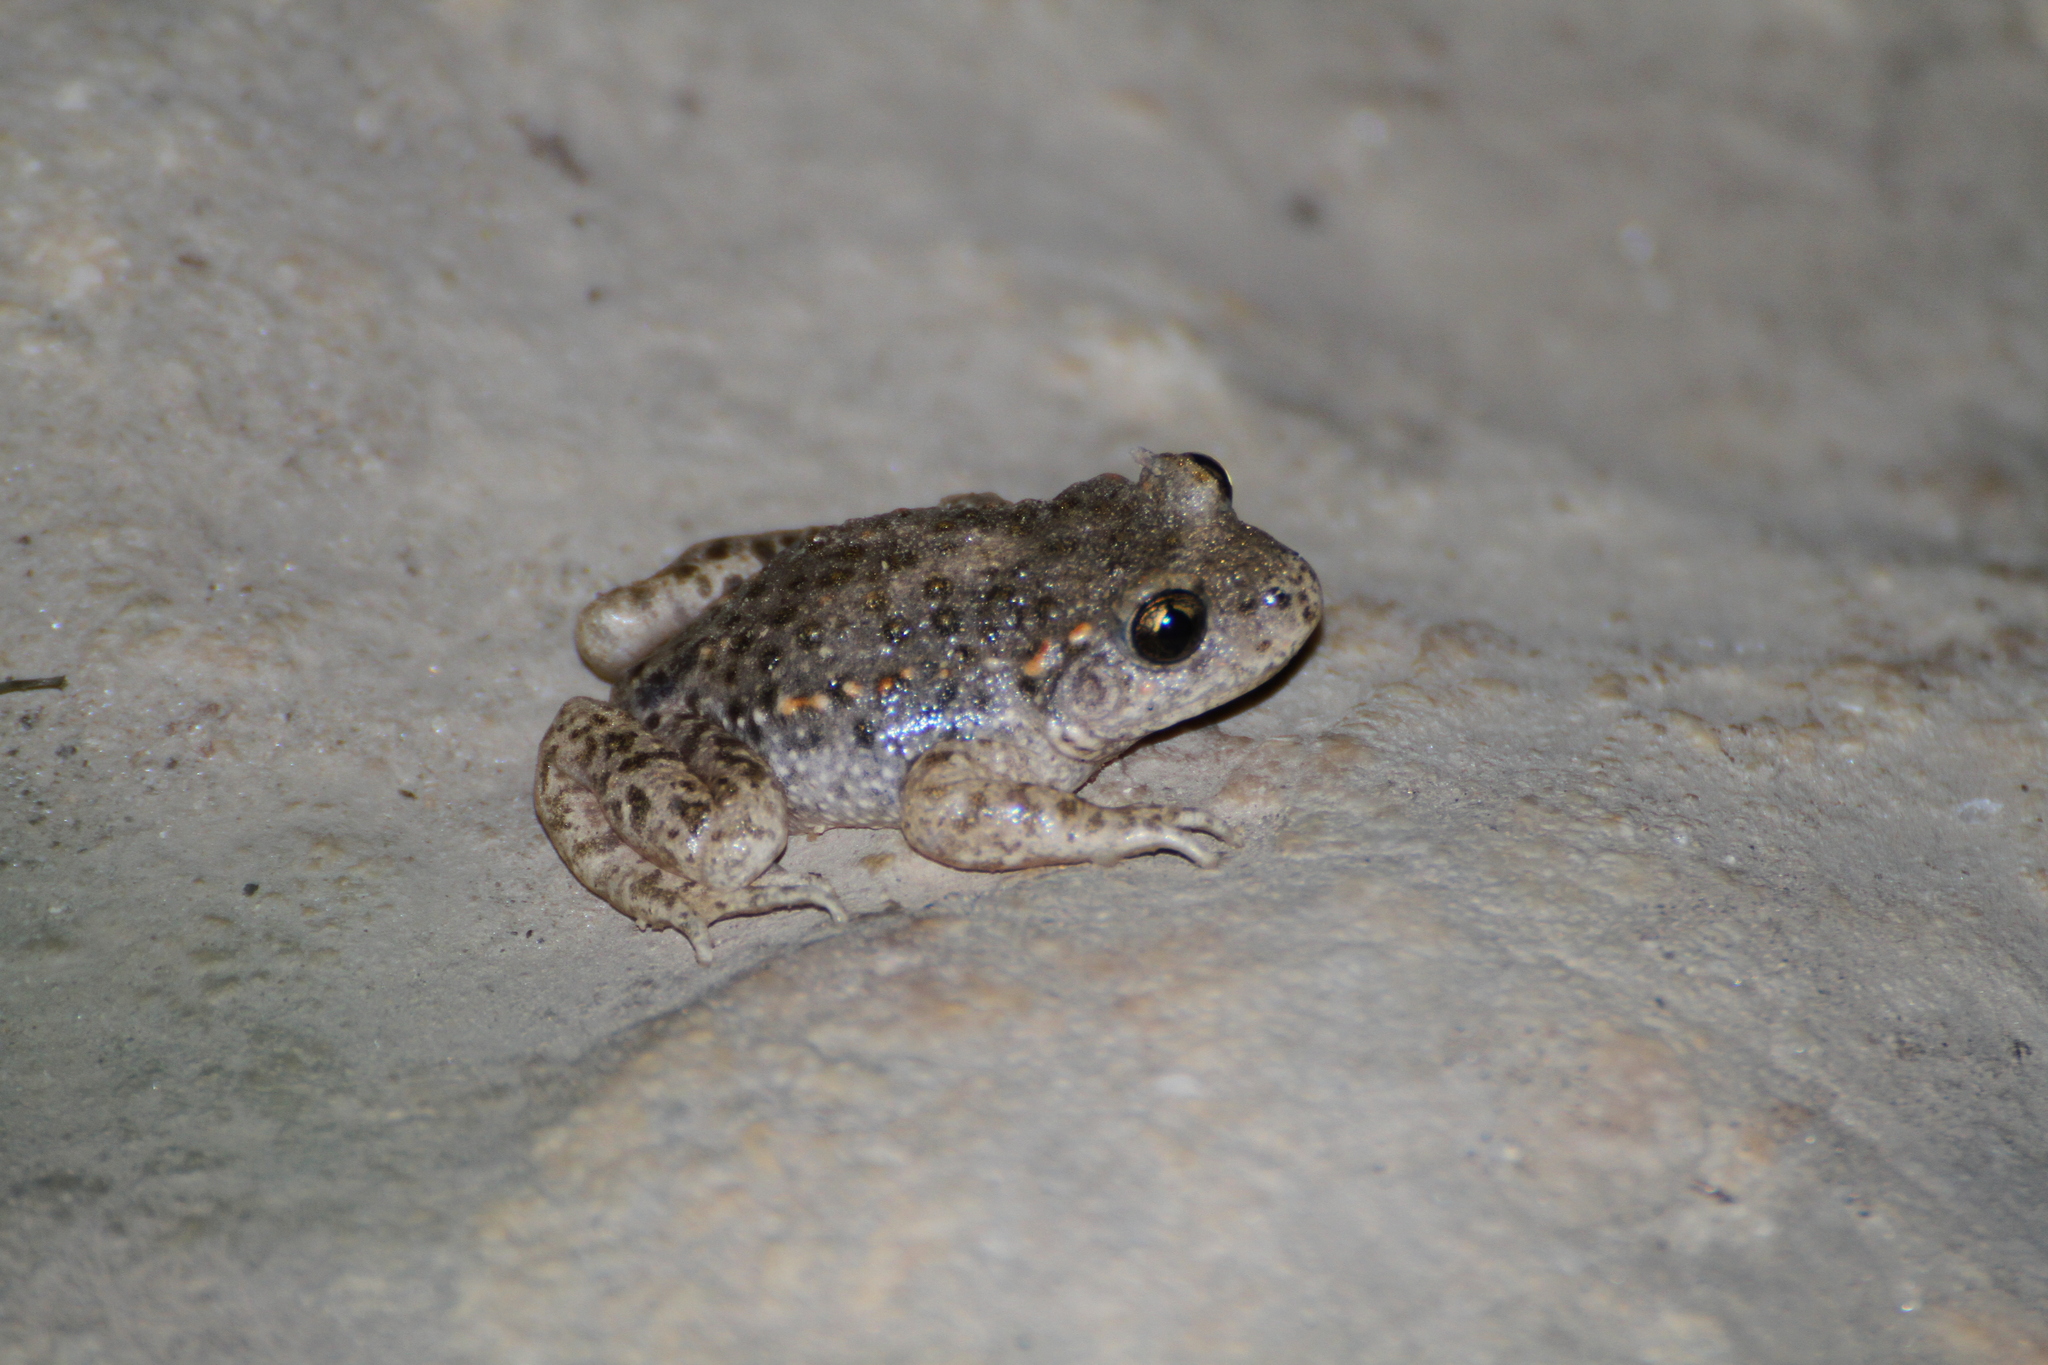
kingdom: Animalia
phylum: Chordata
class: Amphibia
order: Anura
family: Alytidae
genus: Alytes
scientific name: Alytes obstetricans
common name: Midwife toad
